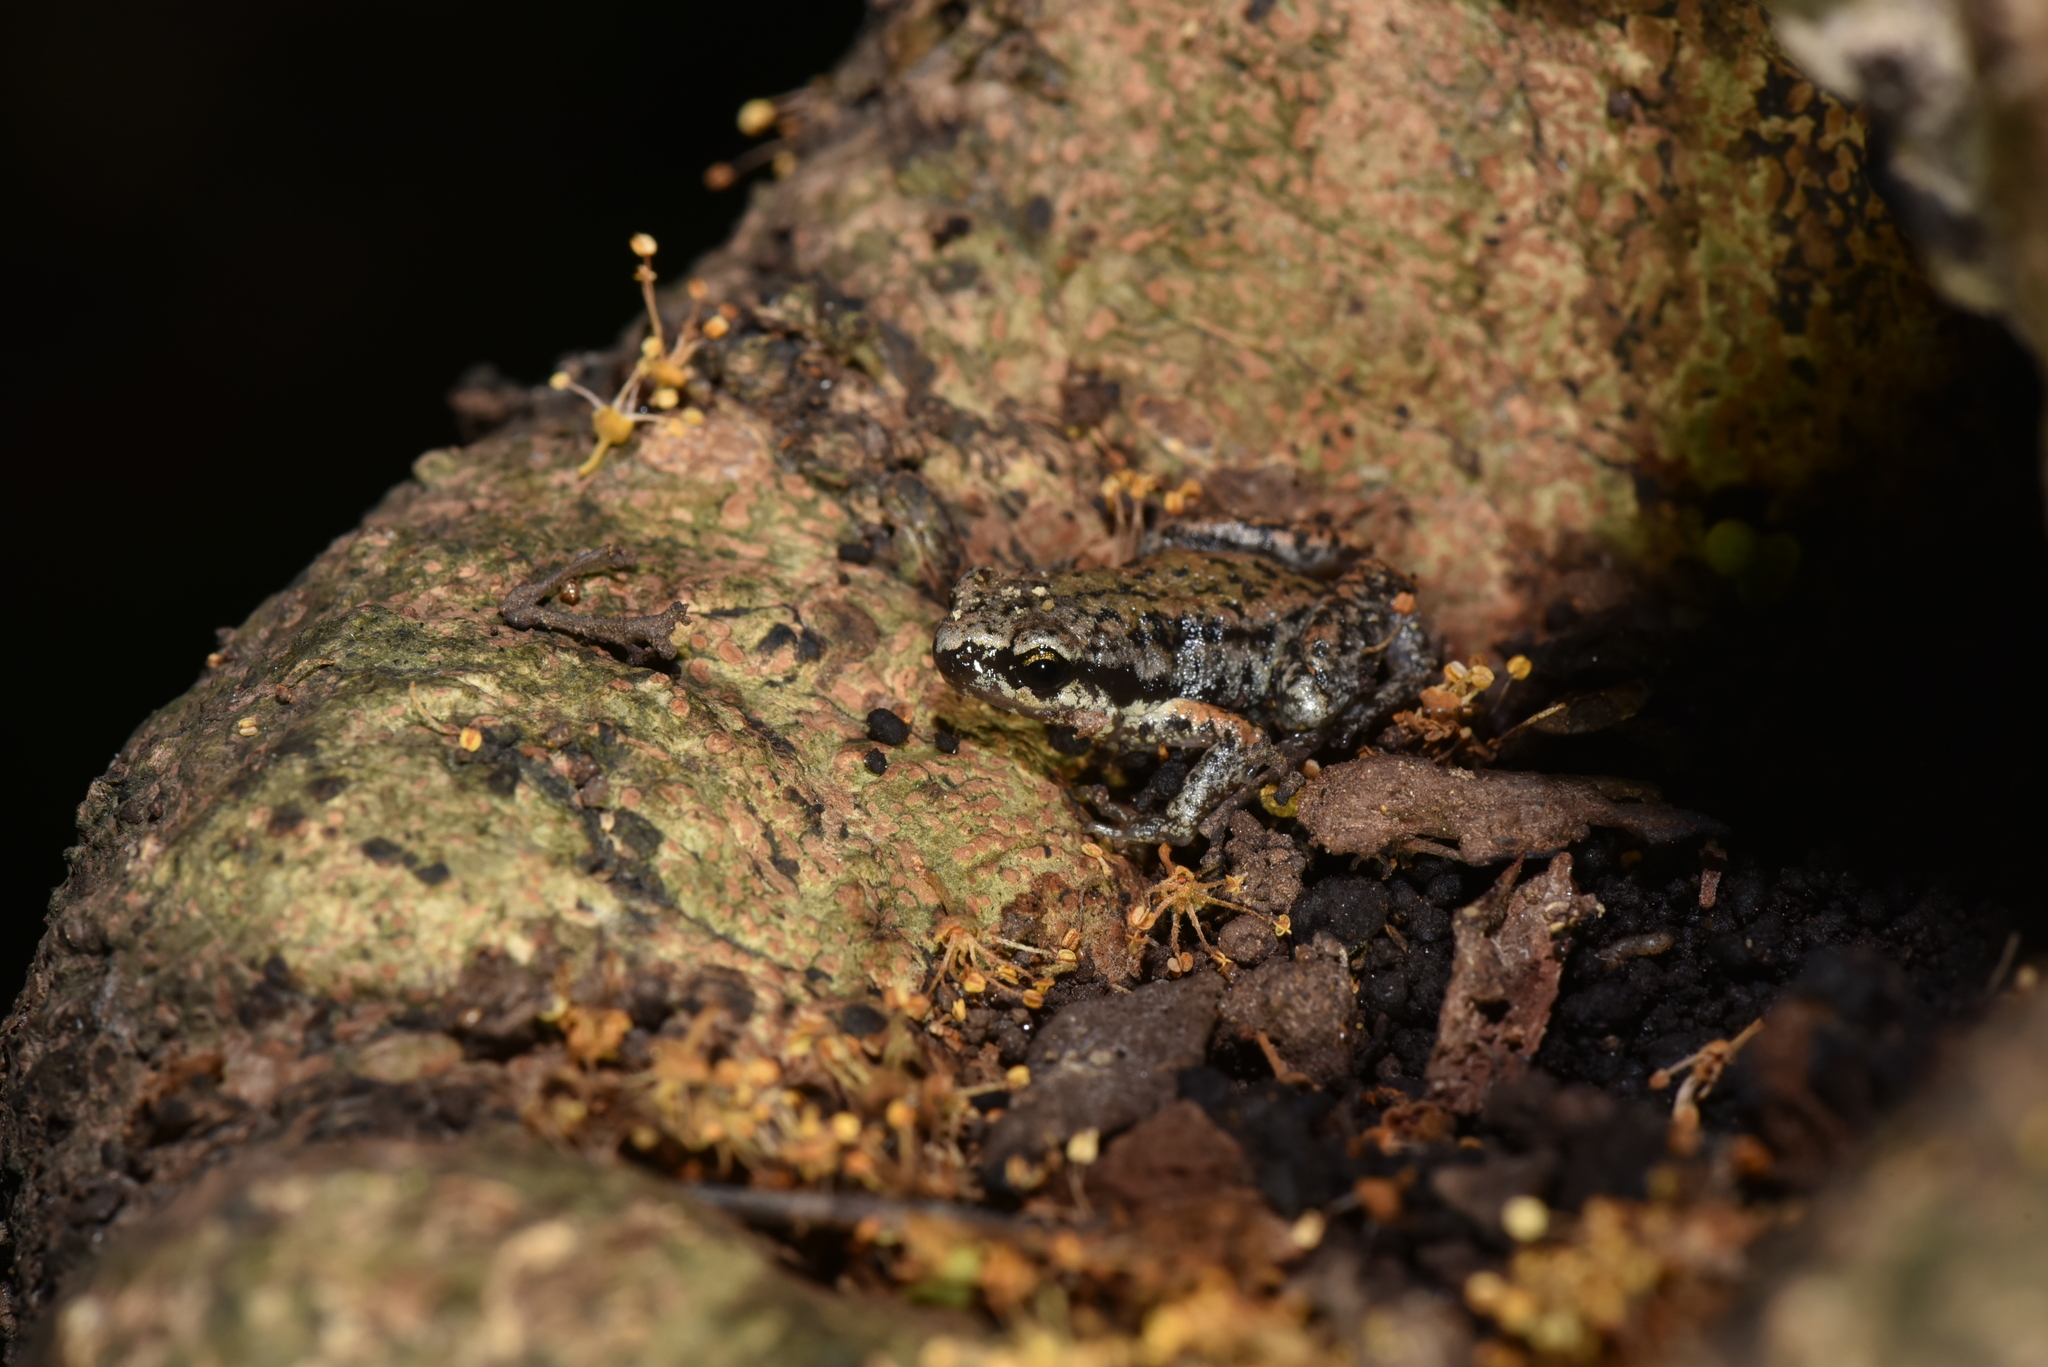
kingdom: Animalia
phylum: Chordata
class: Amphibia
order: Anura
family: Microhylidae
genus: Micryletta
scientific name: Micryletta steinegeri
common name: Stejneger's paddy frog
